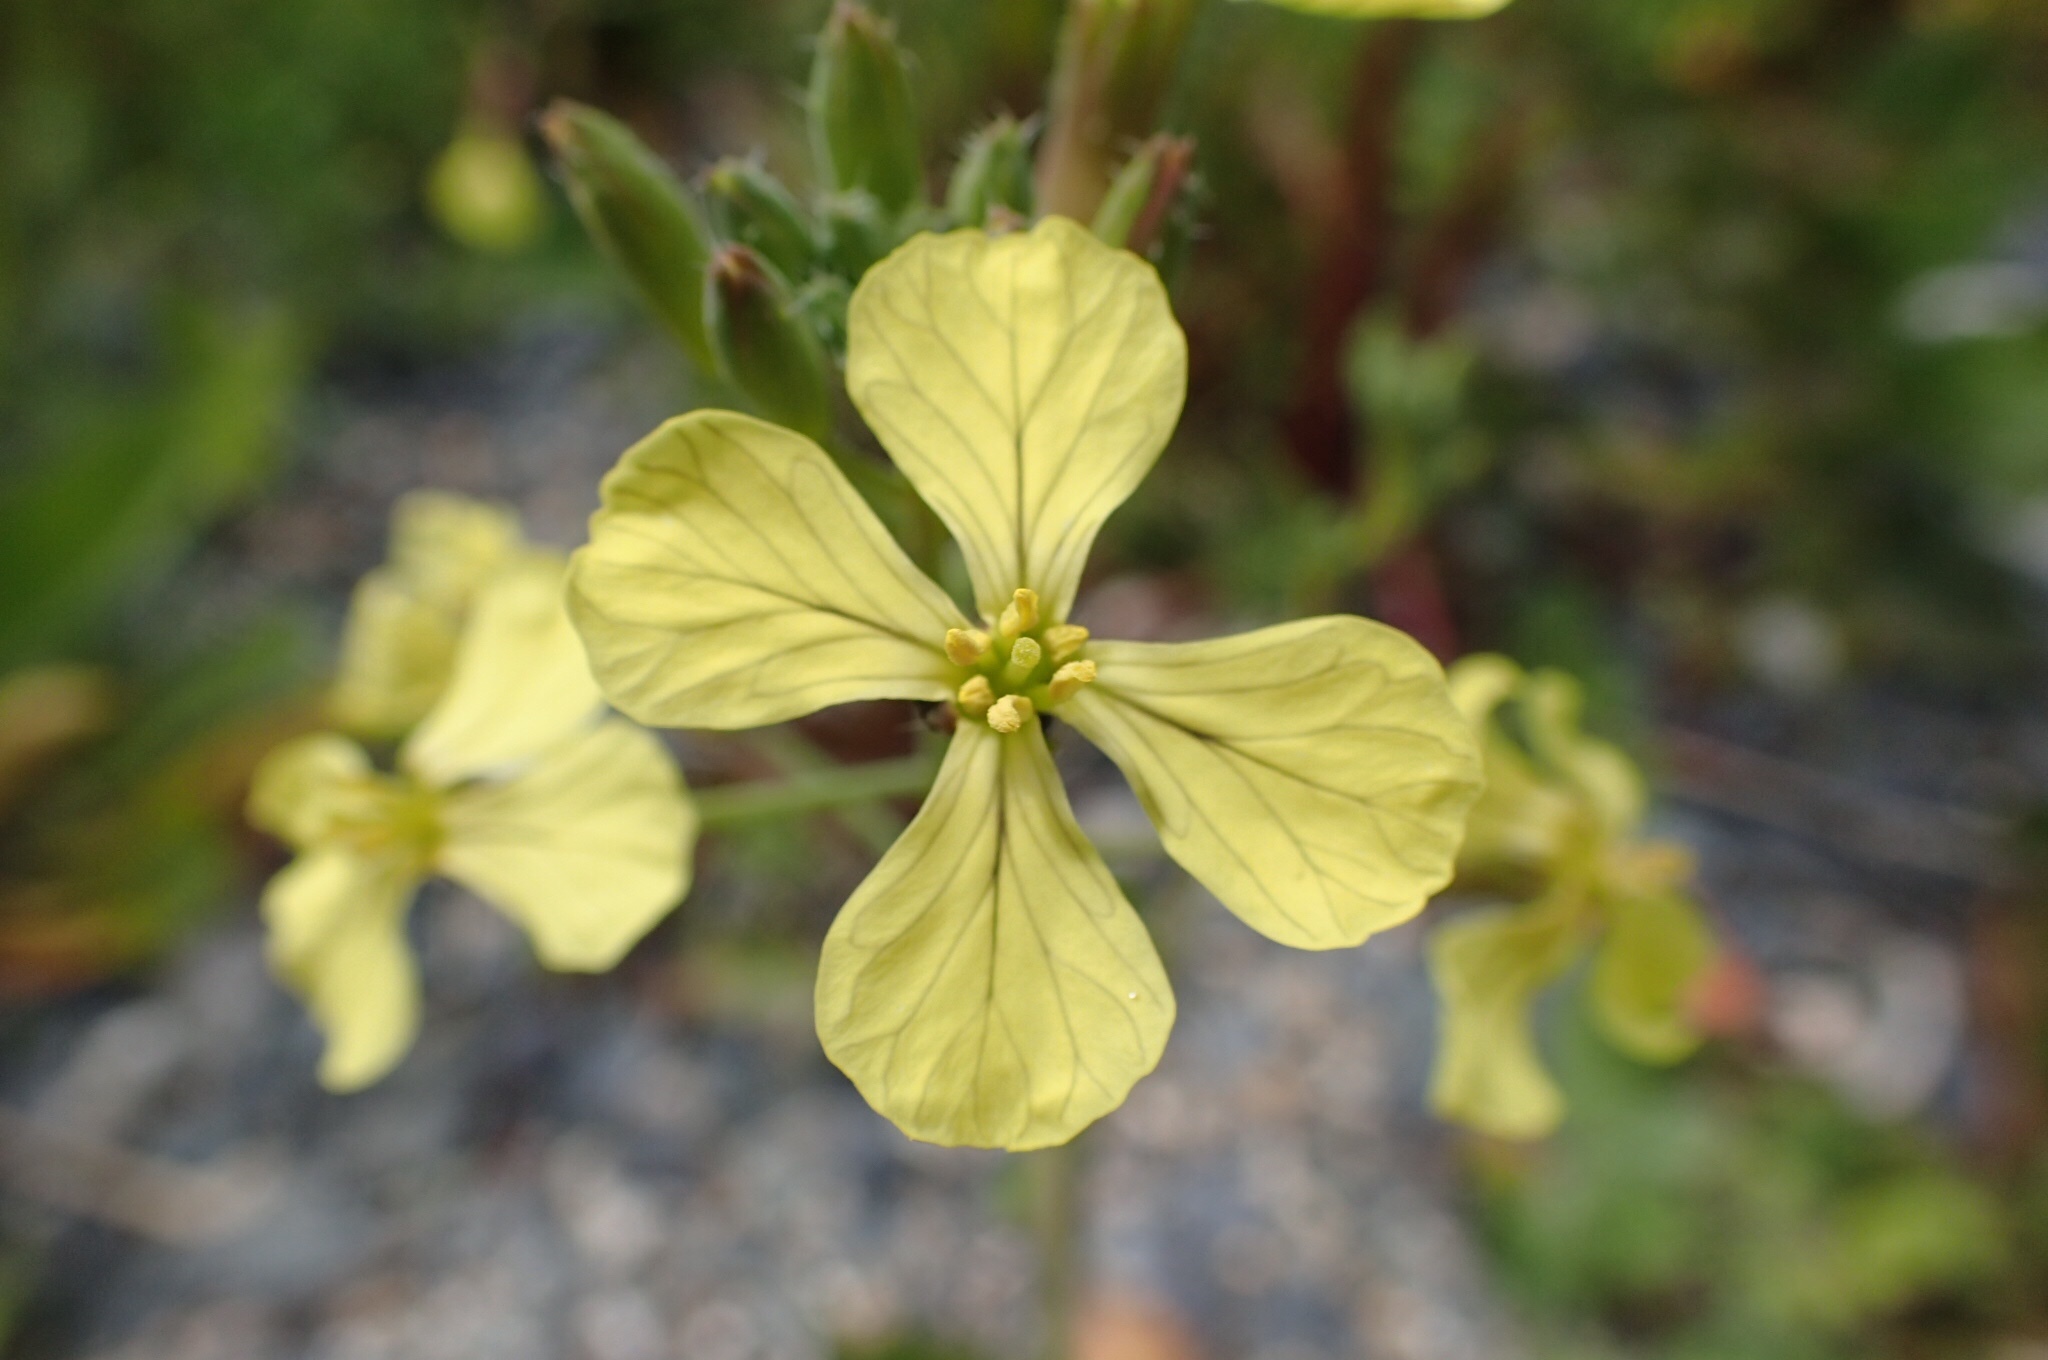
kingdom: Plantae
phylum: Tracheophyta
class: Magnoliopsida
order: Brassicales
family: Brassicaceae
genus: Raphanus
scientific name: Raphanus raphanistrum
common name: Wild radish
